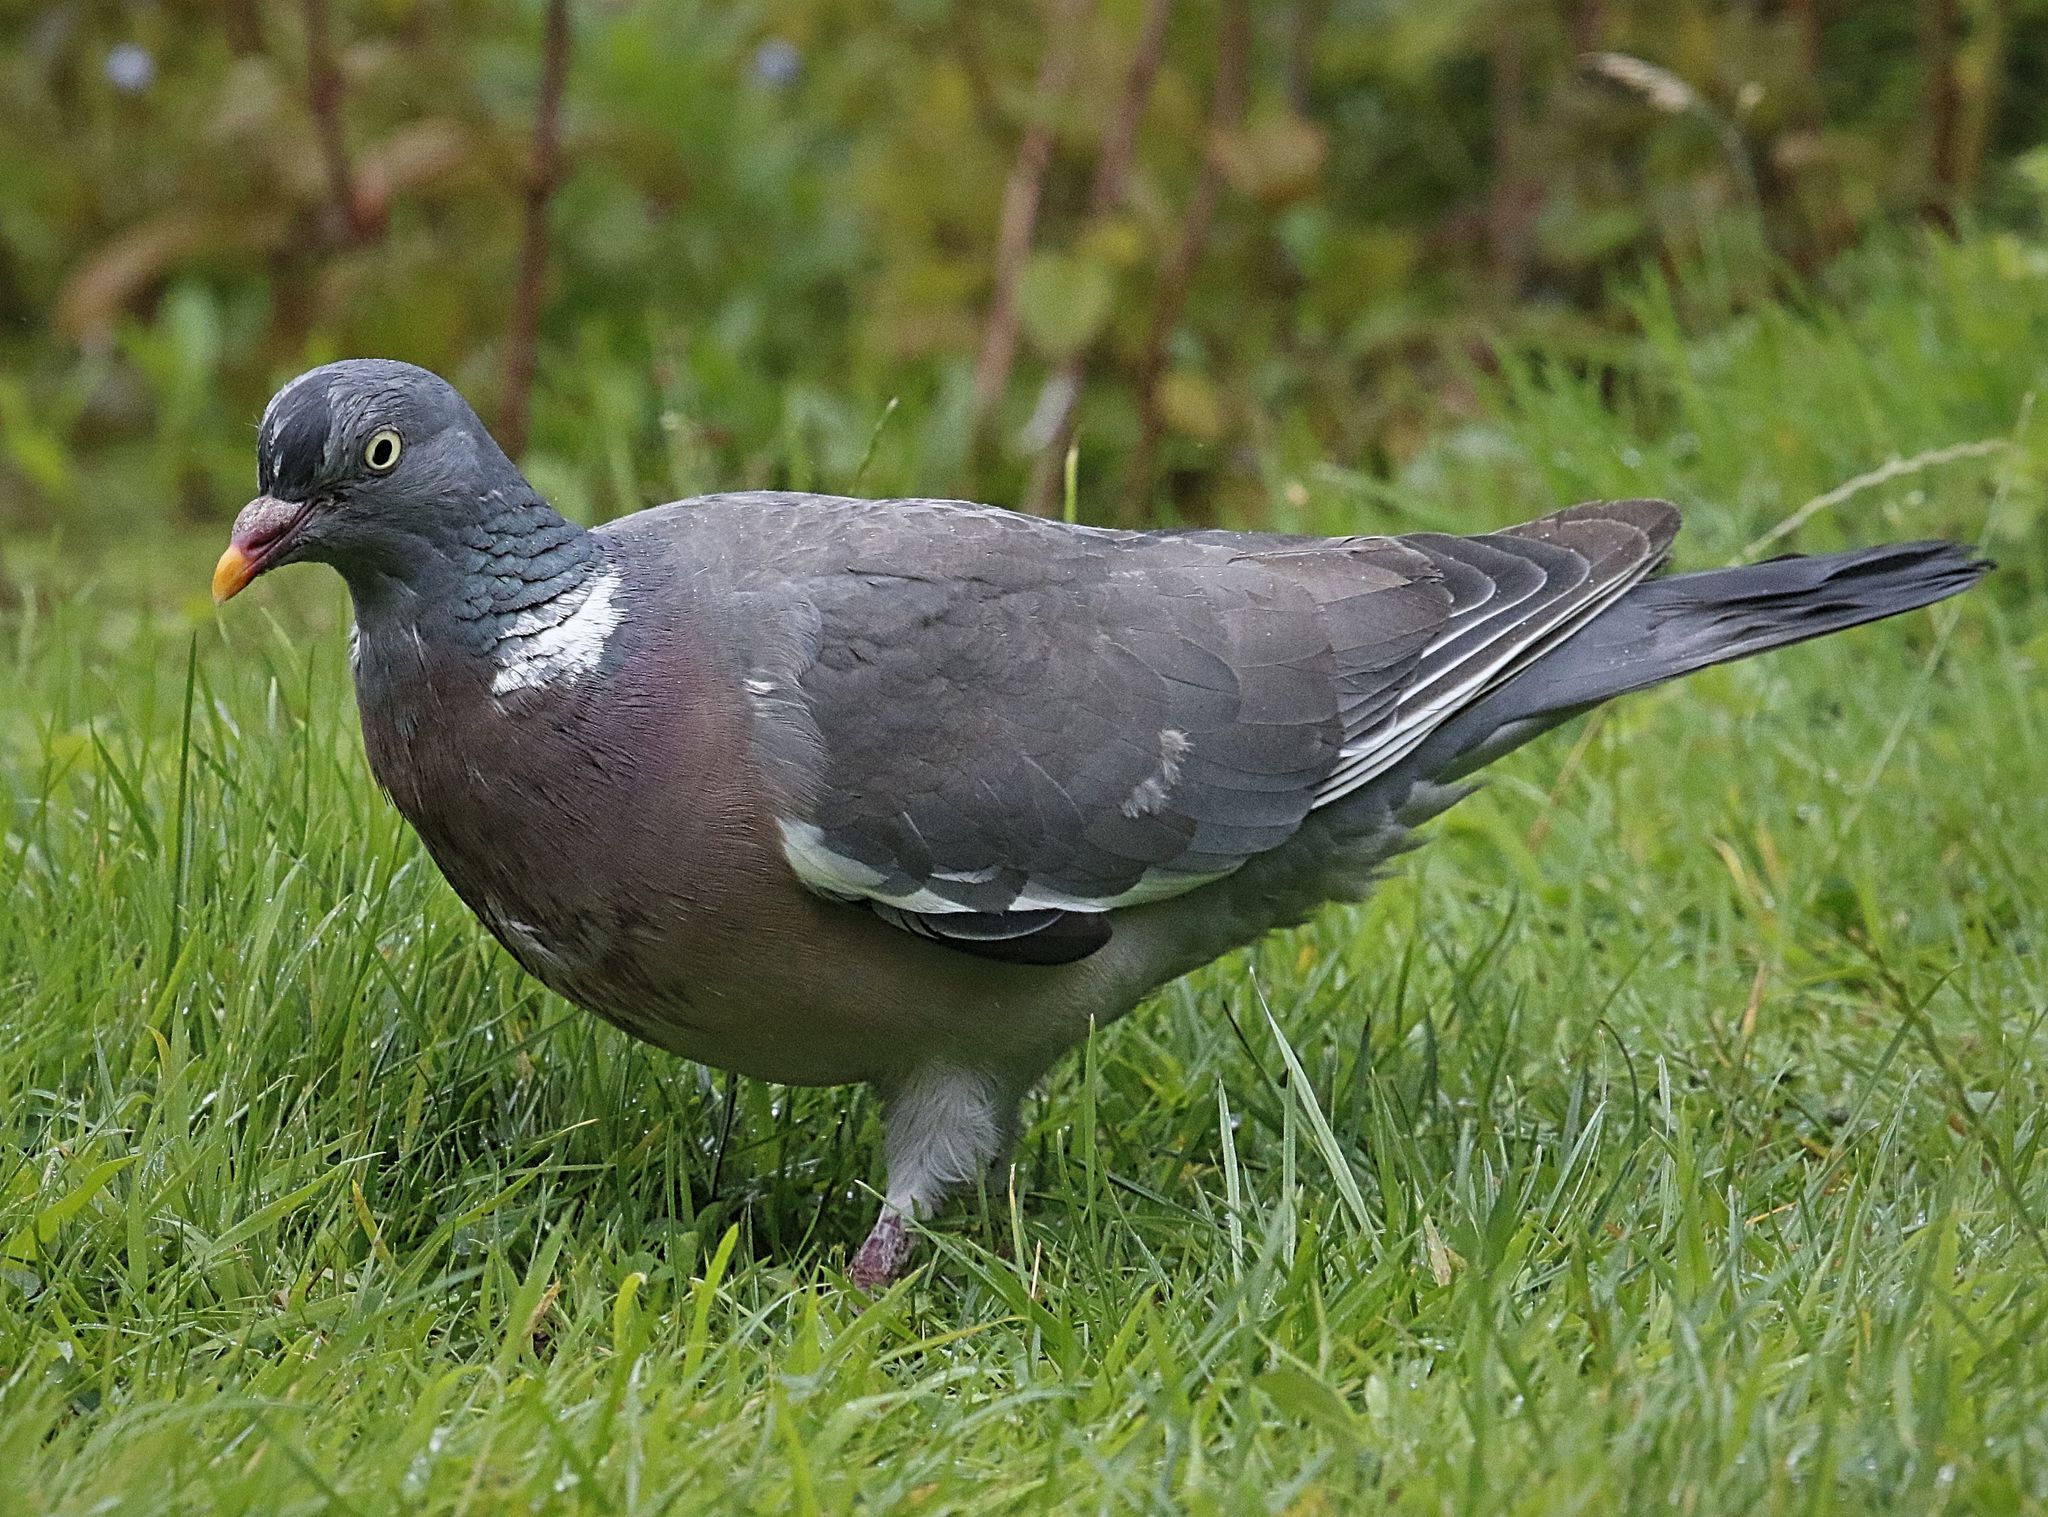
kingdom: Animalia
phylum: Chordata
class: Aves
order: Columbiformes
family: Columbidae
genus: Columba
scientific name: Columba palumbus
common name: Common wood pigeon
